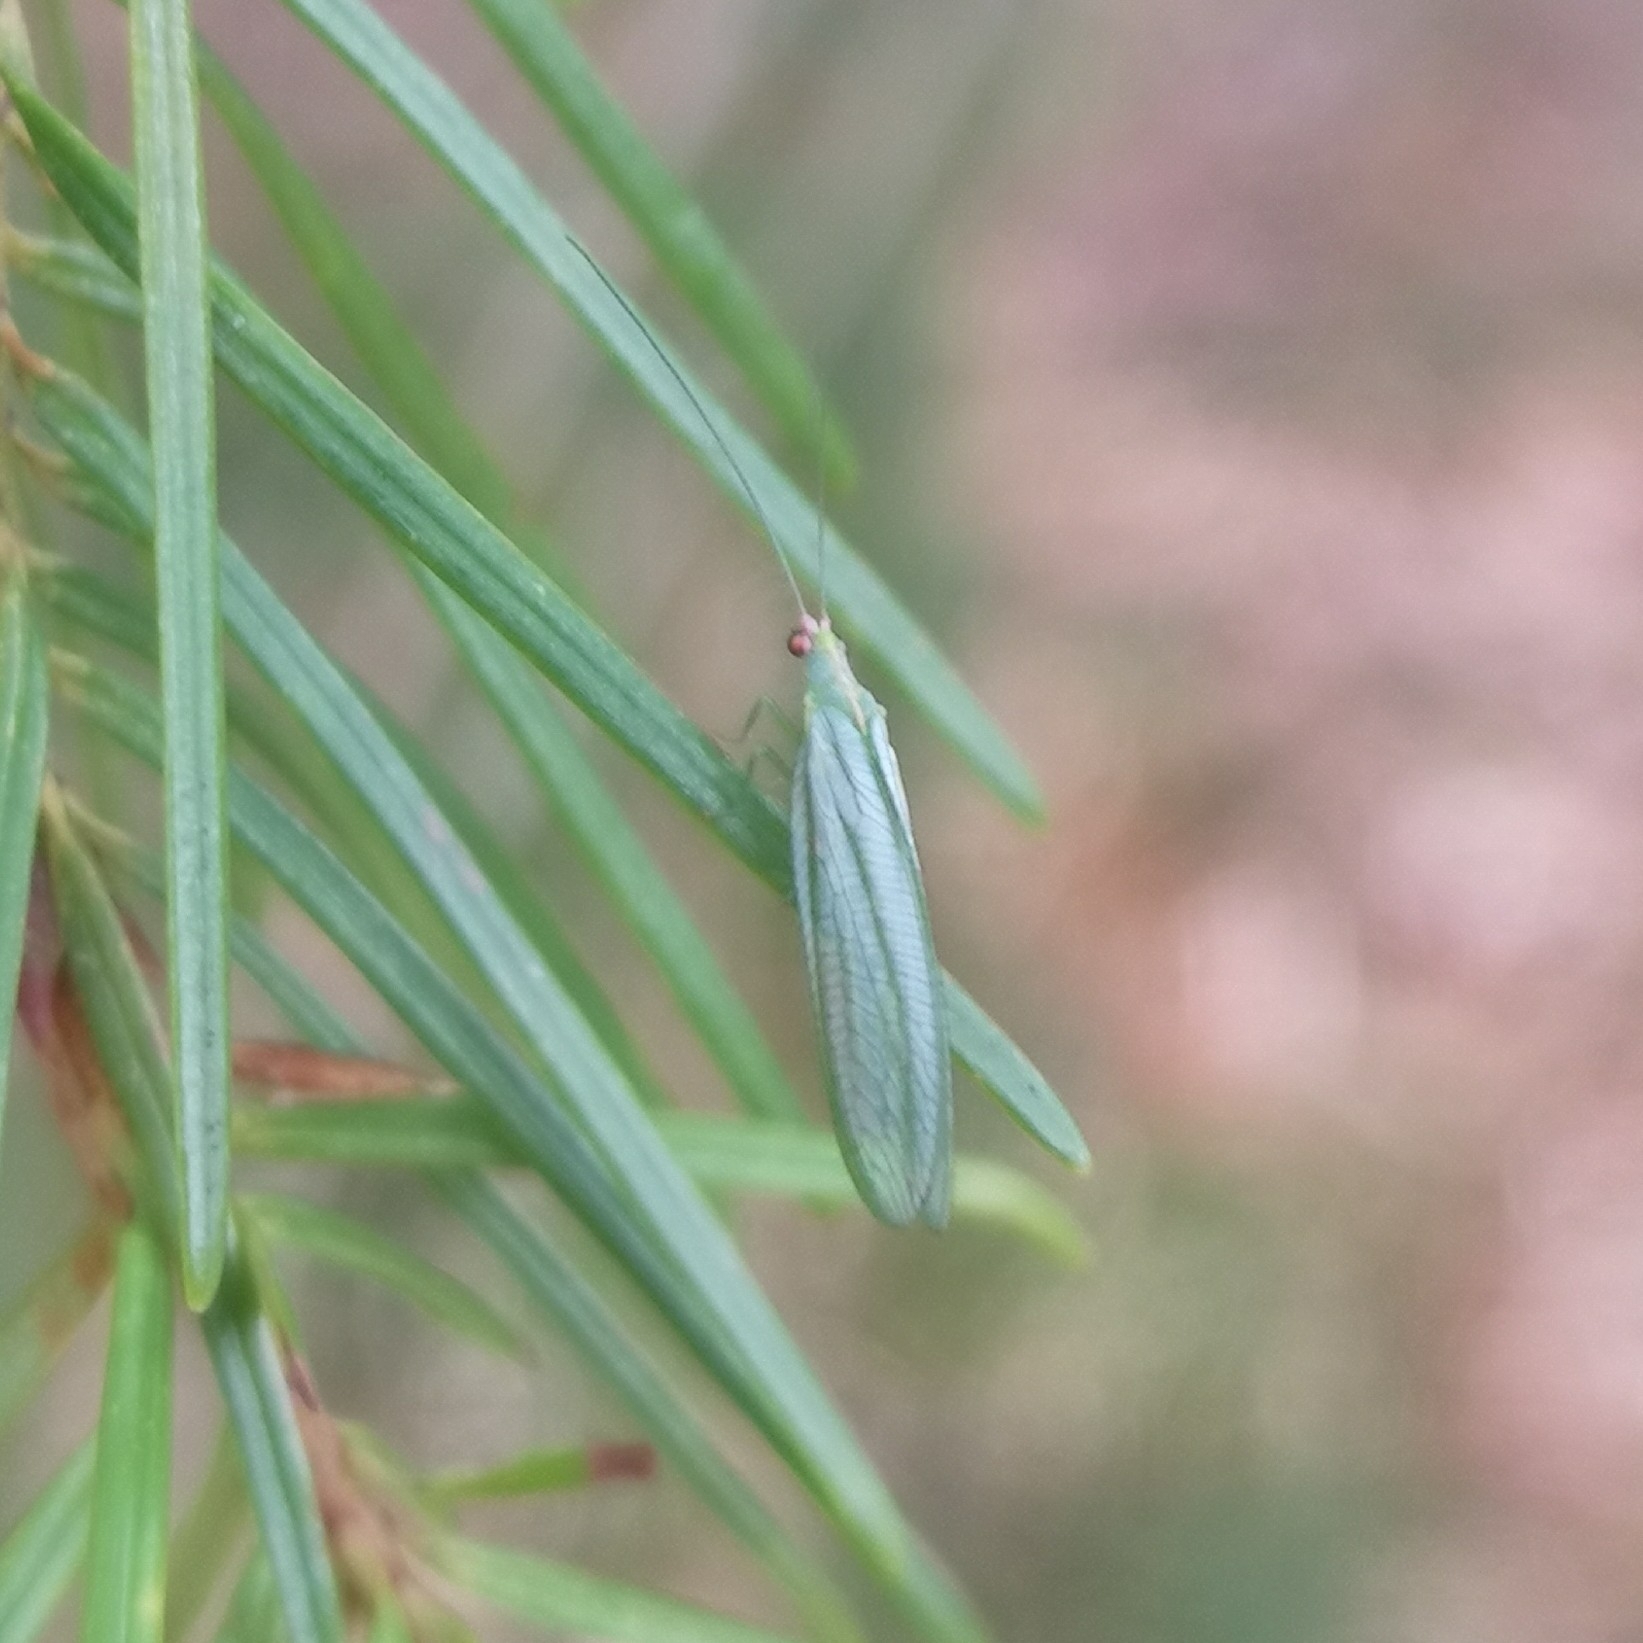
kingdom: Animalia
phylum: Arthropoda
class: Insecta
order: Neuroptera
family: Chrysopidae
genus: Peyerimhoffina
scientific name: Peyerimhoffina gracilis
